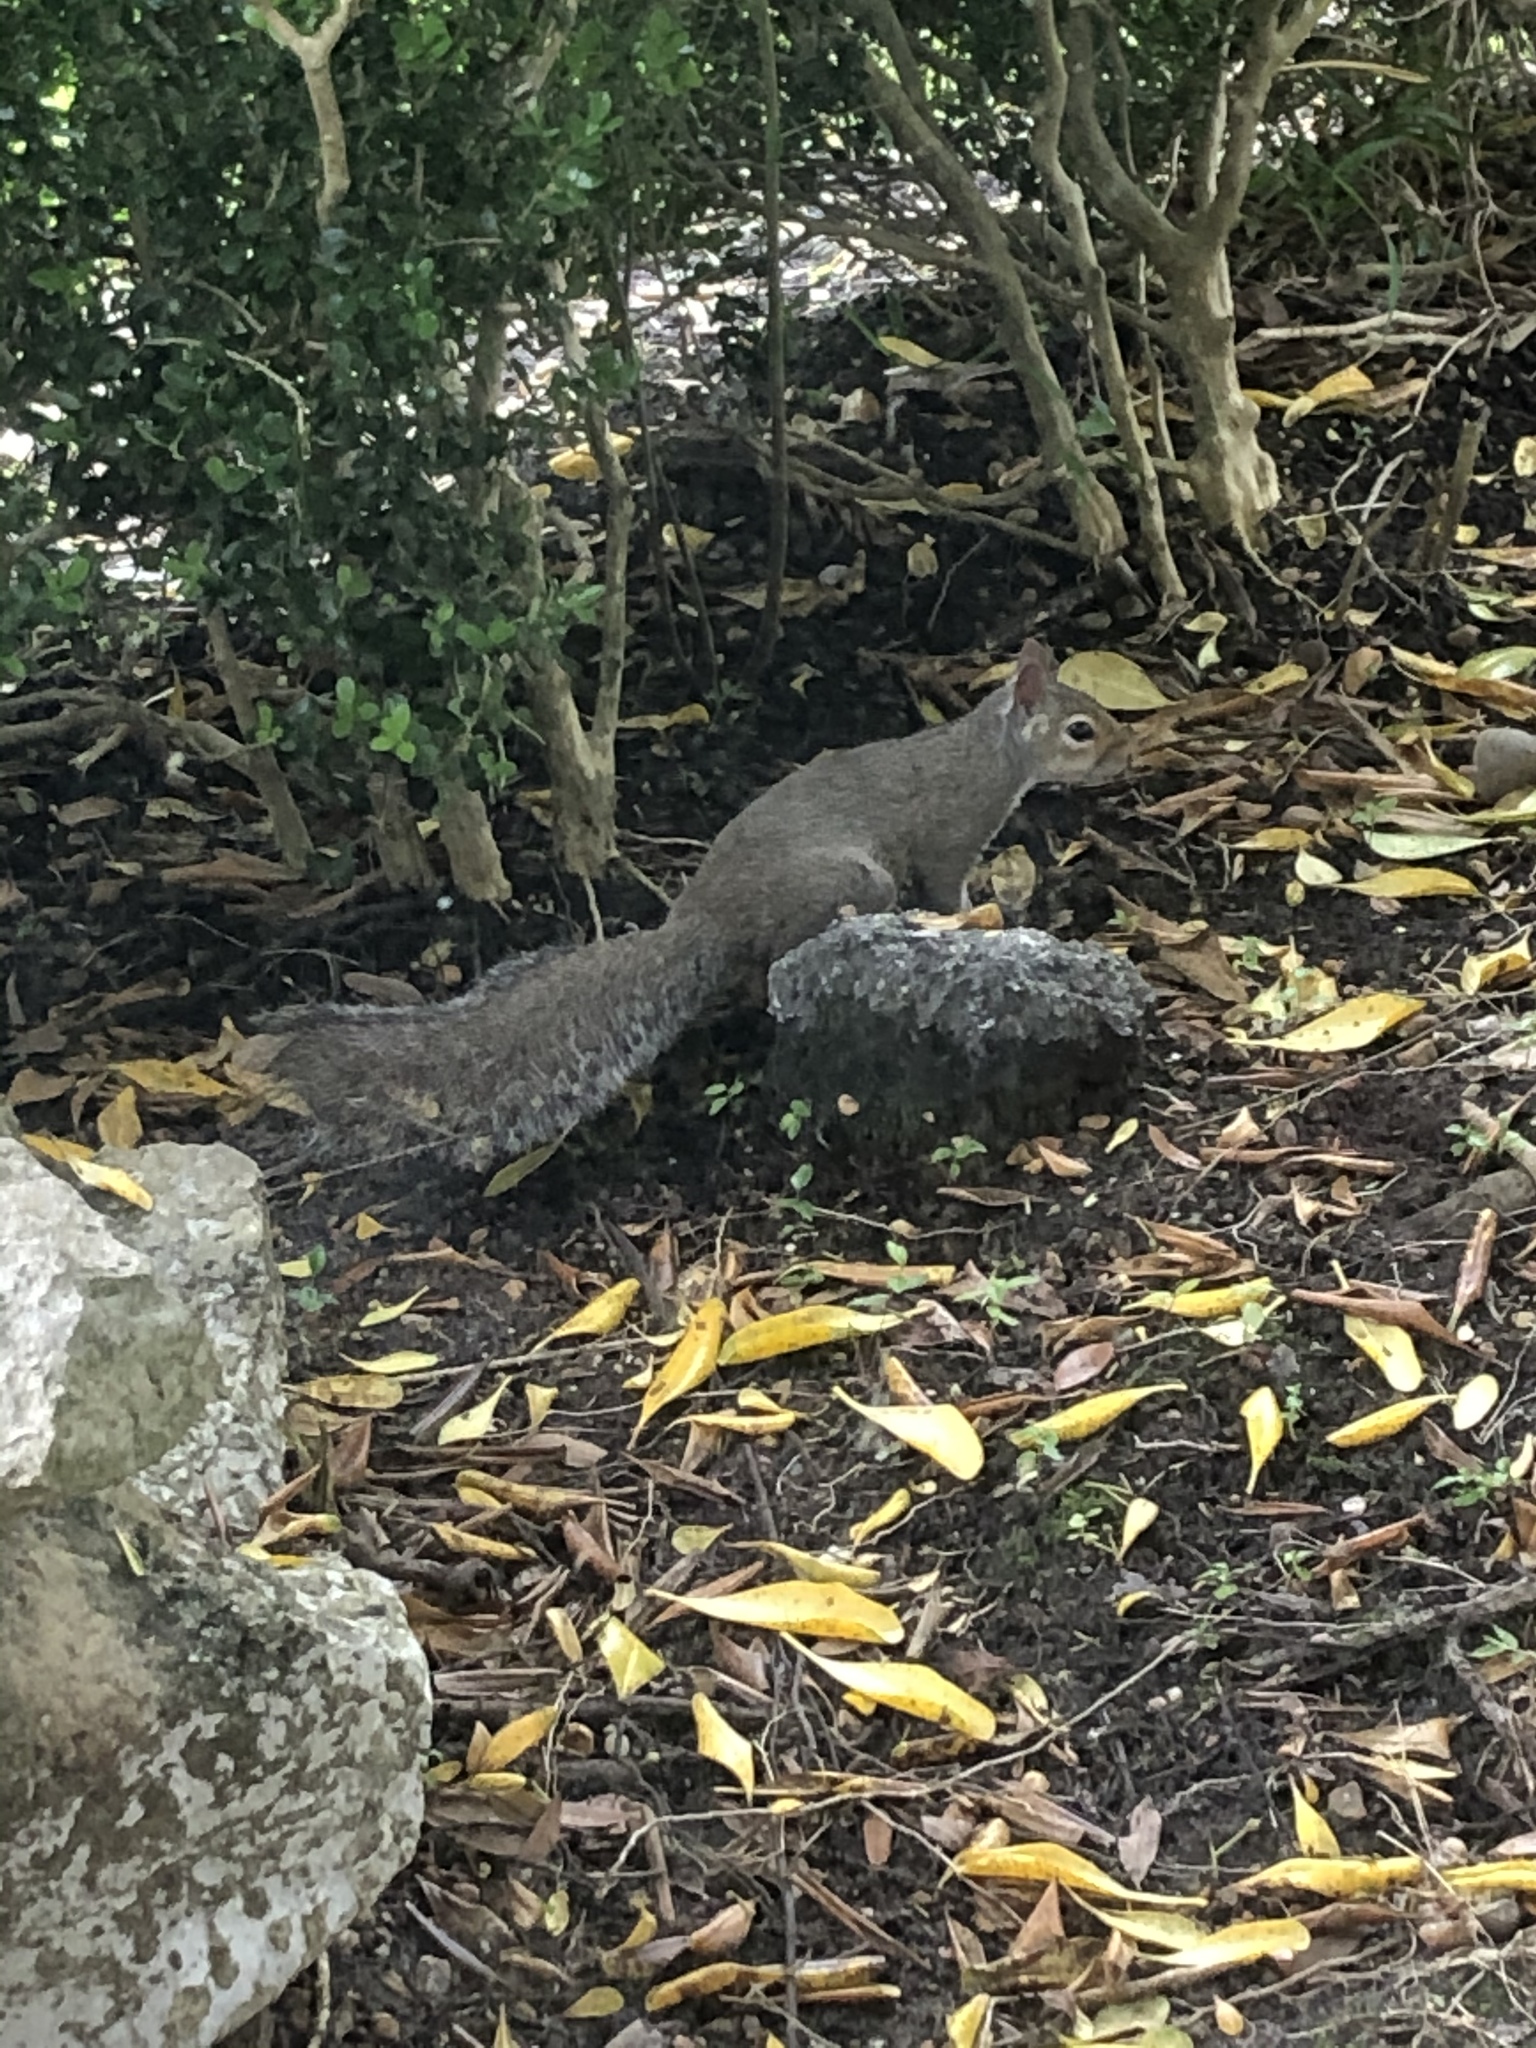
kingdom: Animalia
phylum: Chordata
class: Mammalia
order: Rodentia
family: Sciuridae
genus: Sciurus
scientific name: Sciurus carolinensis
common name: Eastern gray squirrel
